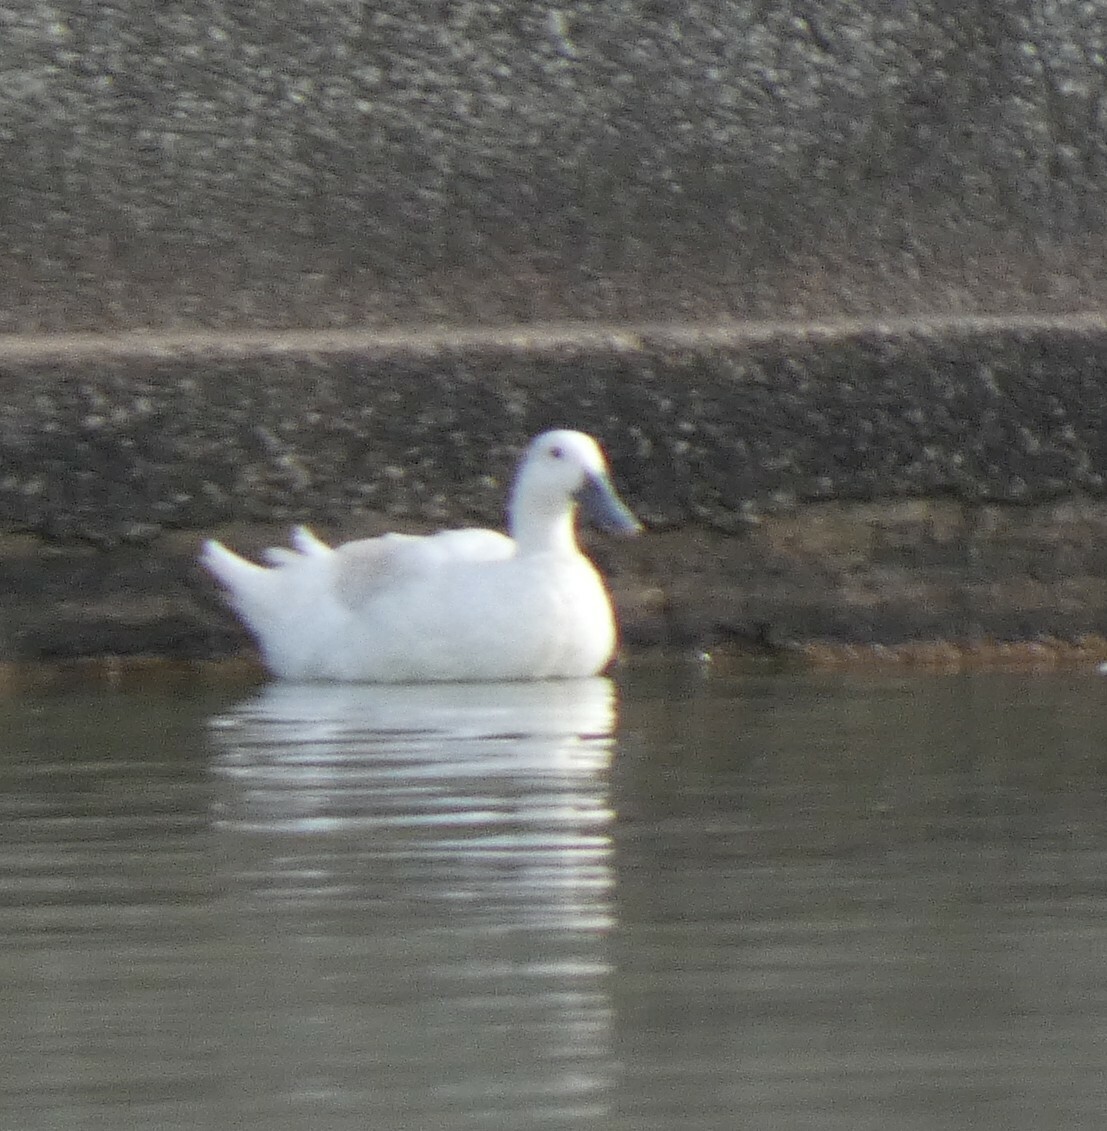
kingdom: Animalia
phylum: Chordata
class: Aves
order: Anseriformes
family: Anatidae
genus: Anas
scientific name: Anas platyrhynchos
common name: Mallard
